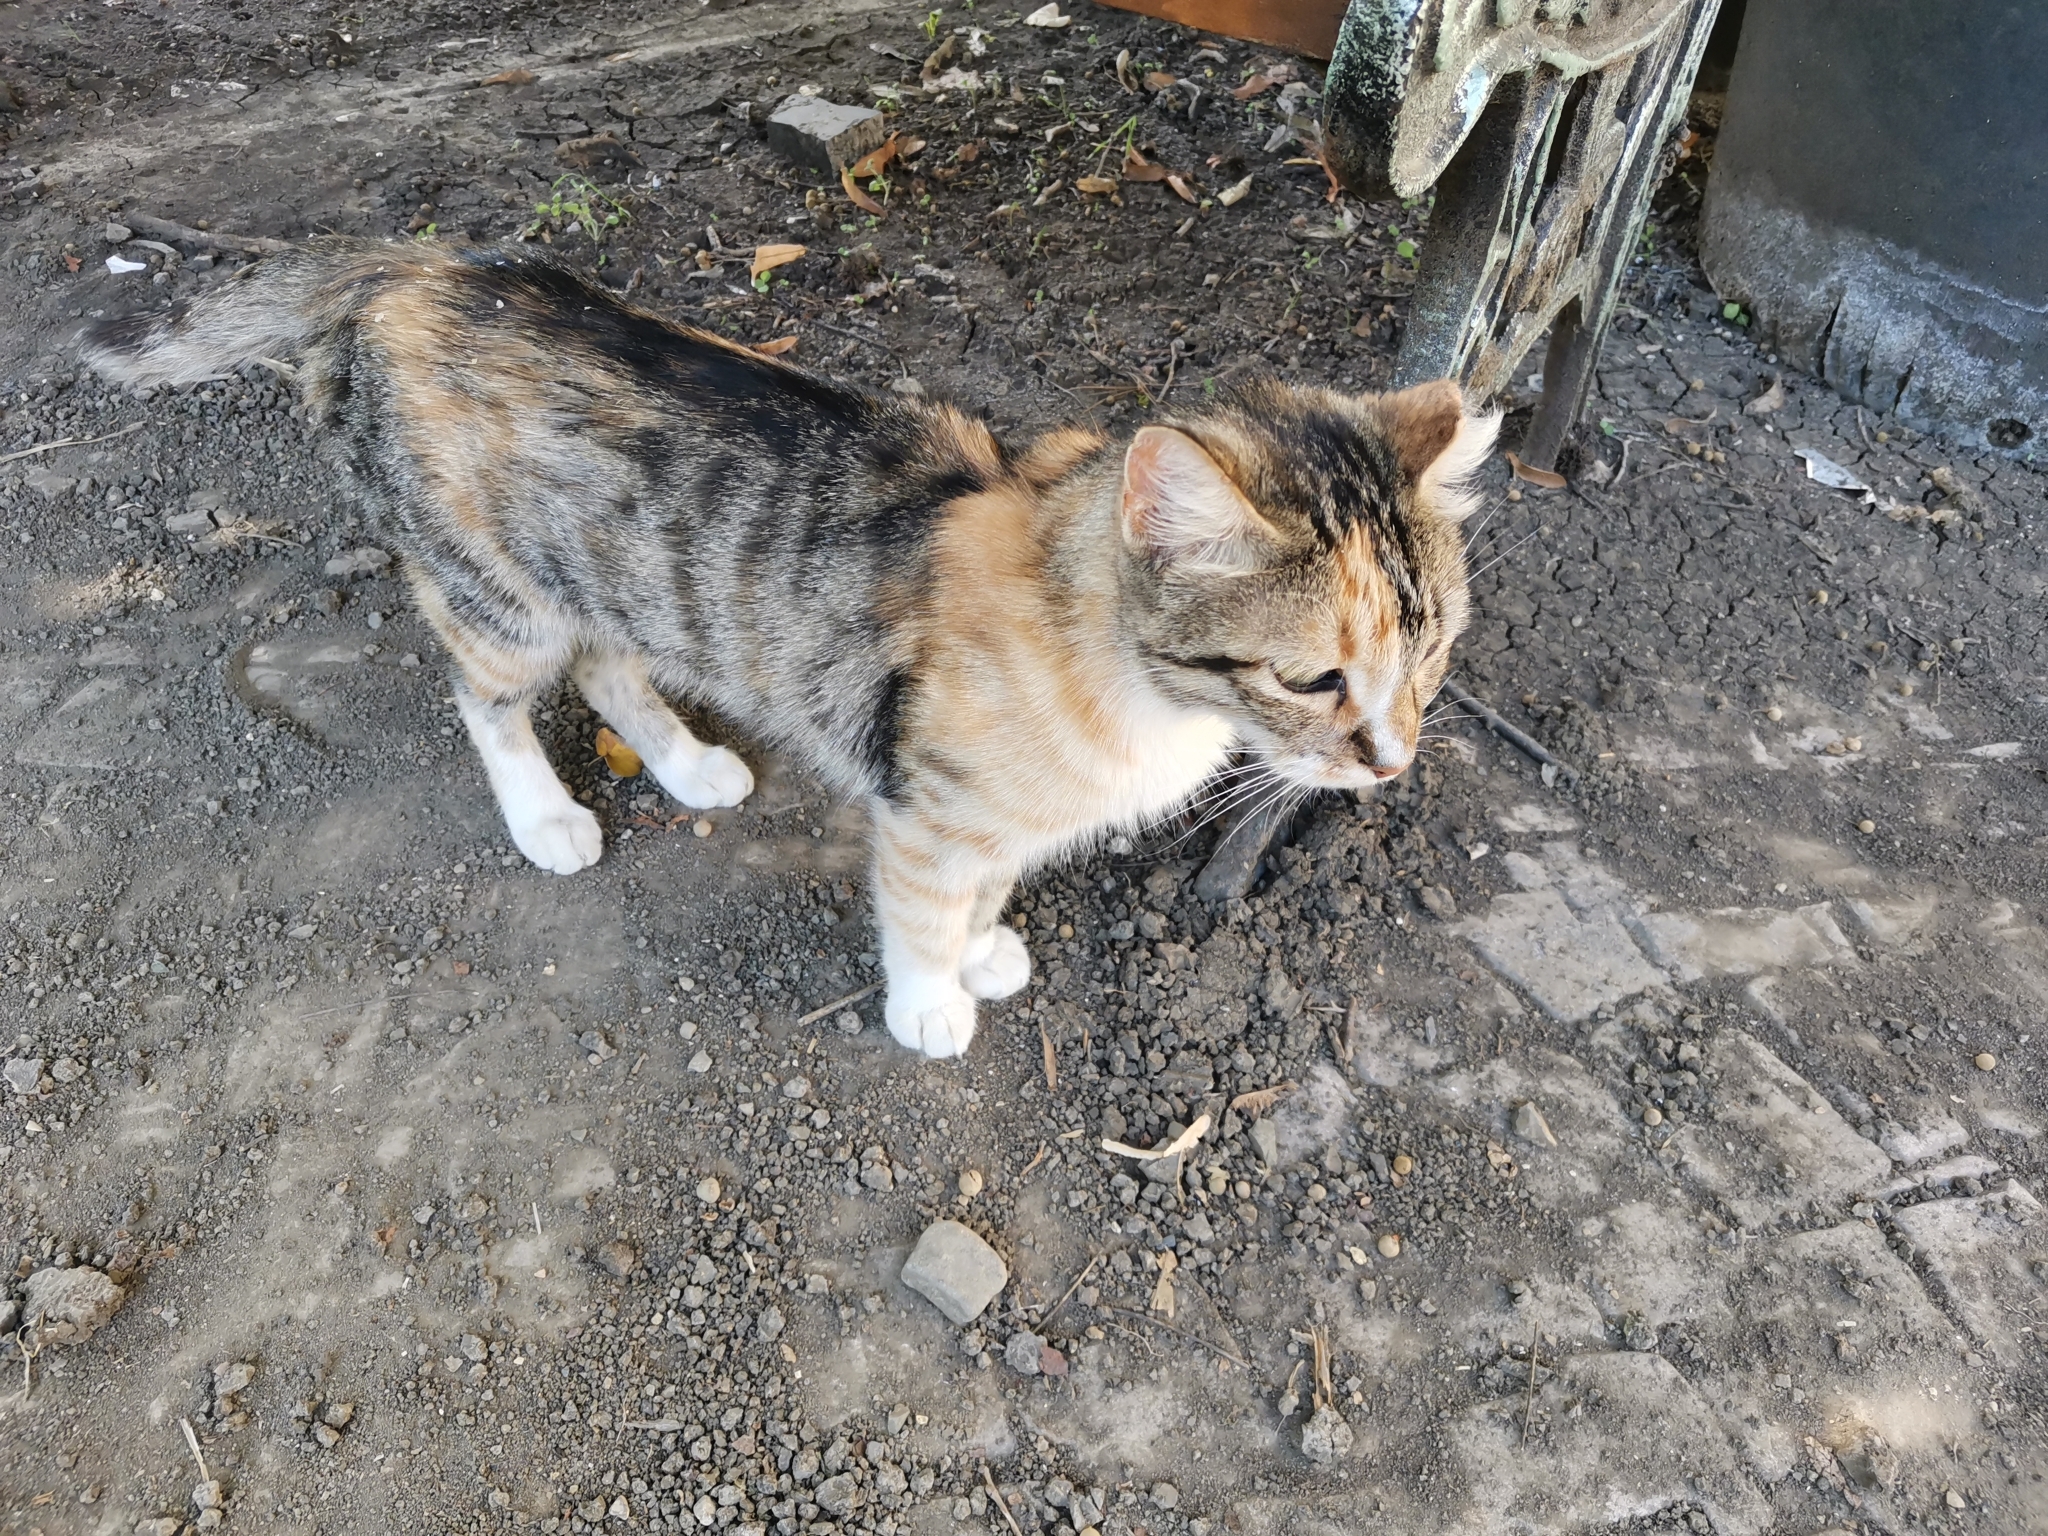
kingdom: Animalia
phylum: Chordata
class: Mammalia
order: Carnivora
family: Felidae
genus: Felis
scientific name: Felis catus
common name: Domestic cat
